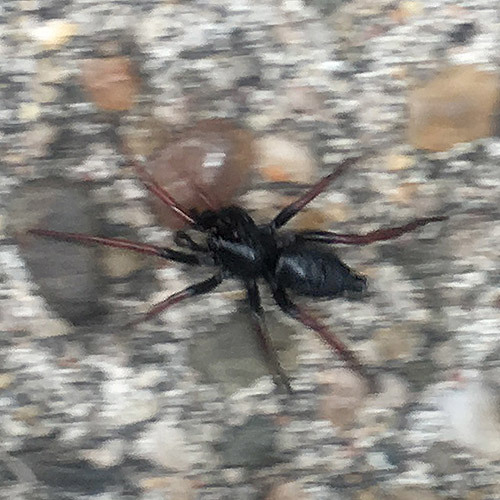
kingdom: Animalia
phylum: Arthropoda
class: Arachnida
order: Araneae
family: Gnaphosidae
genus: Trachyzelotes
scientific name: Trachyzelotes pedestris
